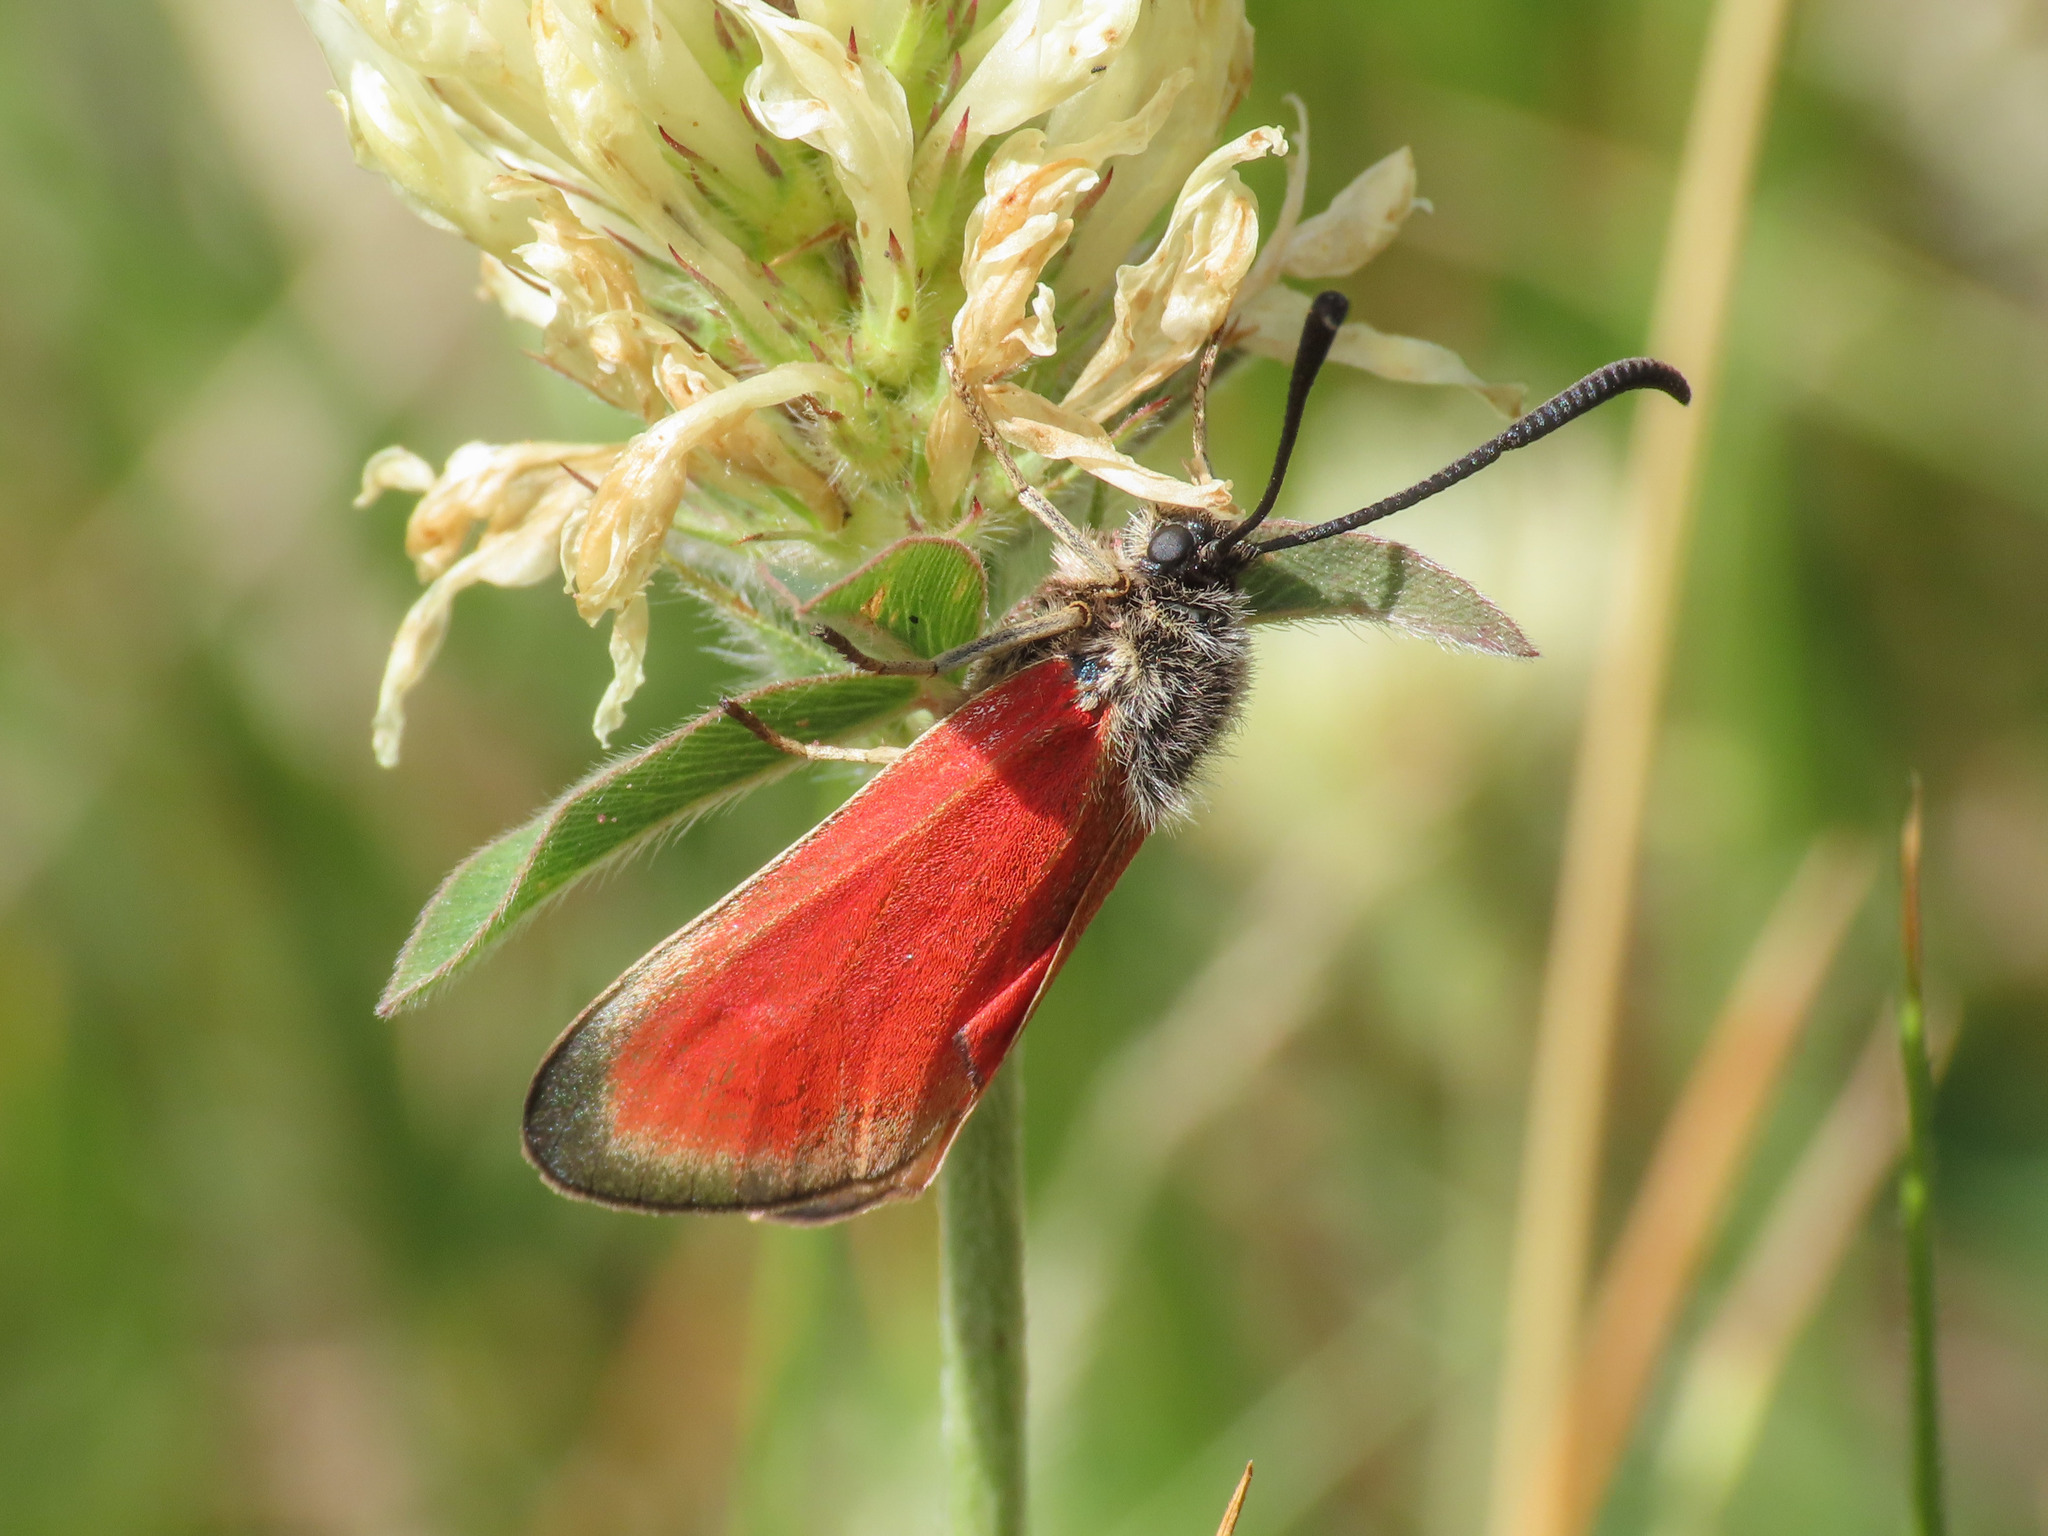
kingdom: Animalia
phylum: Arthropoda
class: Insecta
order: Lepidoptera
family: Zygaenidae
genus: Zygaena
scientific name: Zygaena rubicundus
